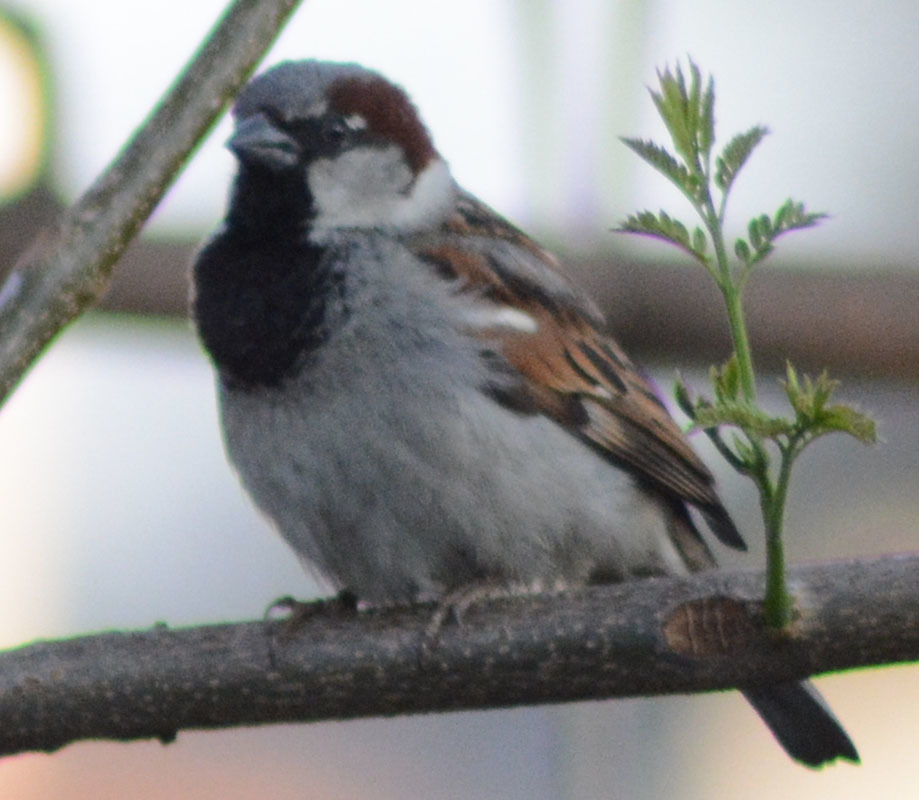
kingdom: Animalia
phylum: Chordata
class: Aves
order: Passeriformes
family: Passeridae
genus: Passer
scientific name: Passer domesticus
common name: House sparrow
